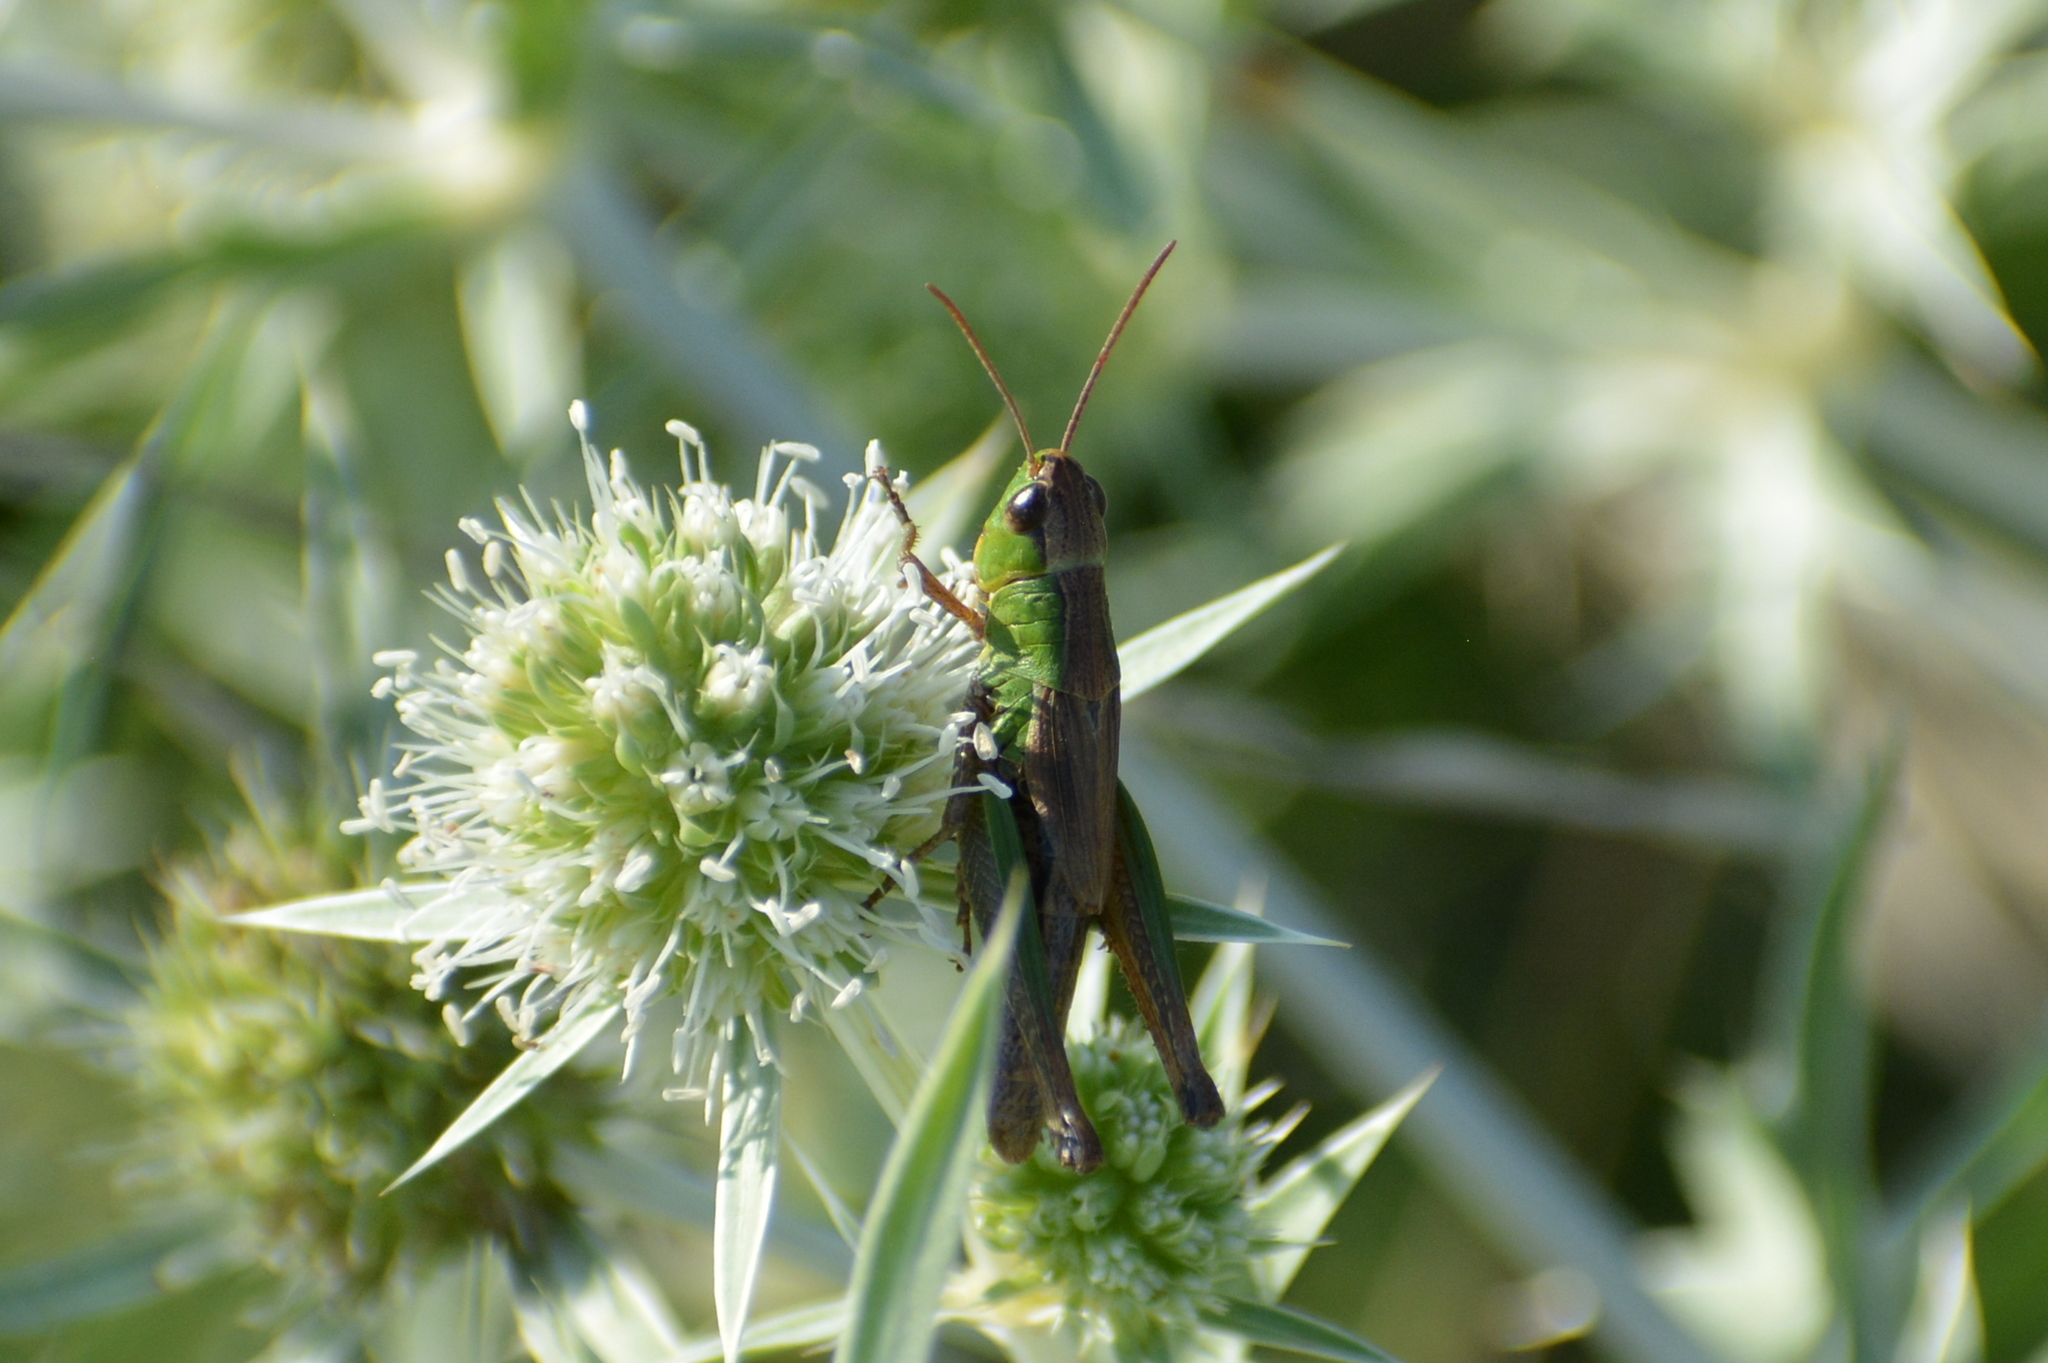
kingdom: Animalia
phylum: Arthropoda
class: Insecta
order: Orthoptera
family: Acrididae
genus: Pseudochorthippus
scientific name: Pseudochorthippus parallelus
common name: Meadow grasshopper
